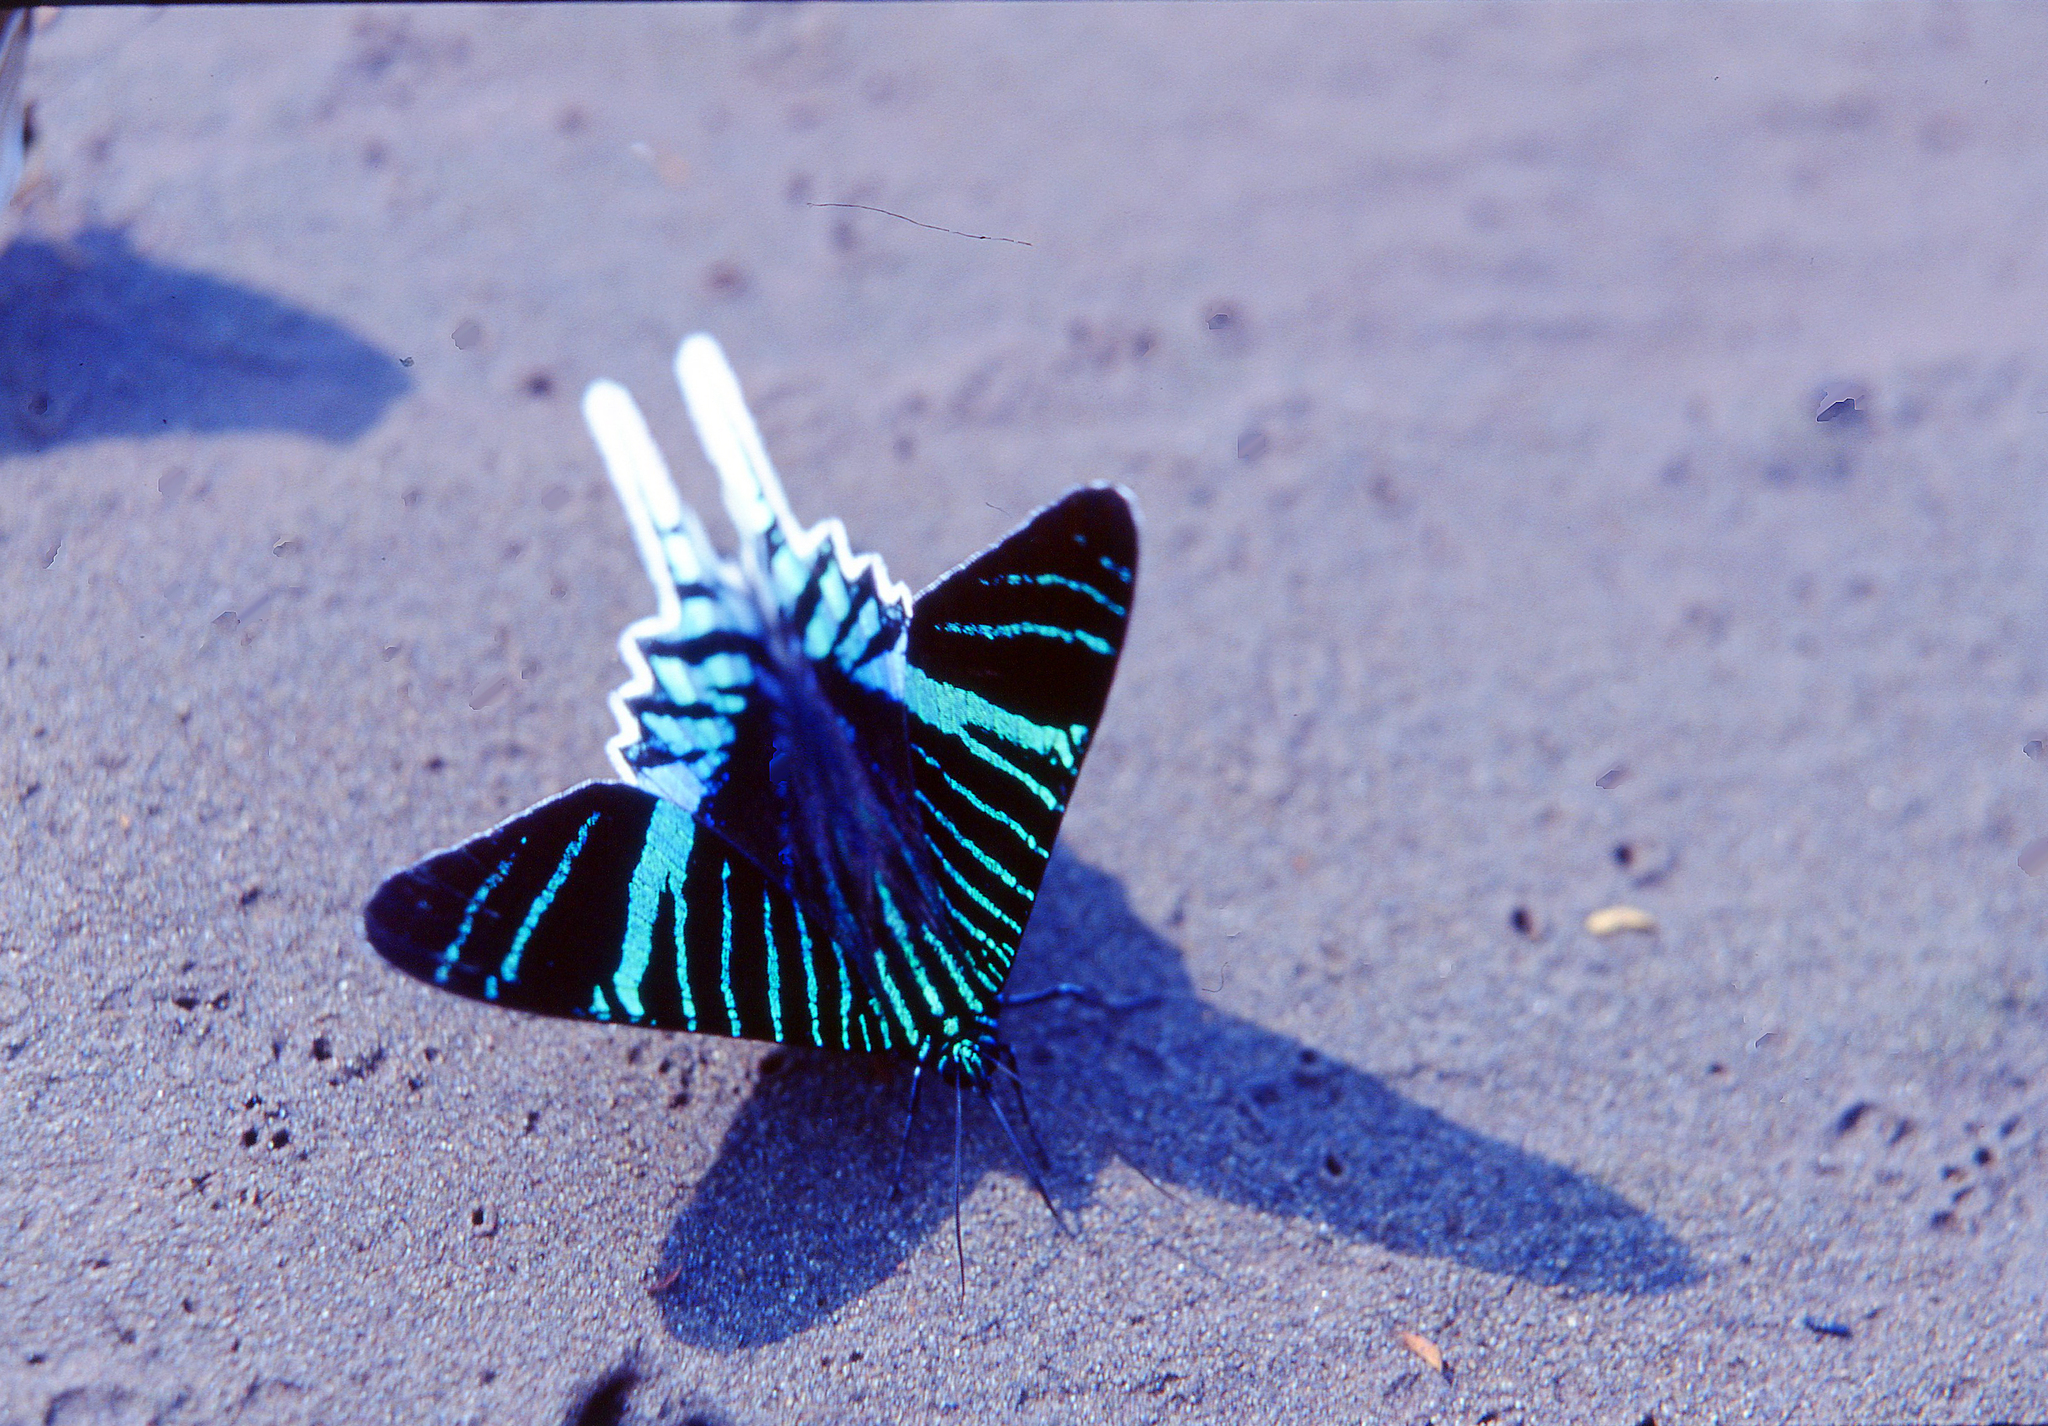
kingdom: Animalia
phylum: Arthropoda
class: Insecta
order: Lepidoptera
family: Uraniidae
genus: Urania
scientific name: Urania leilus
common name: Peacock moth
